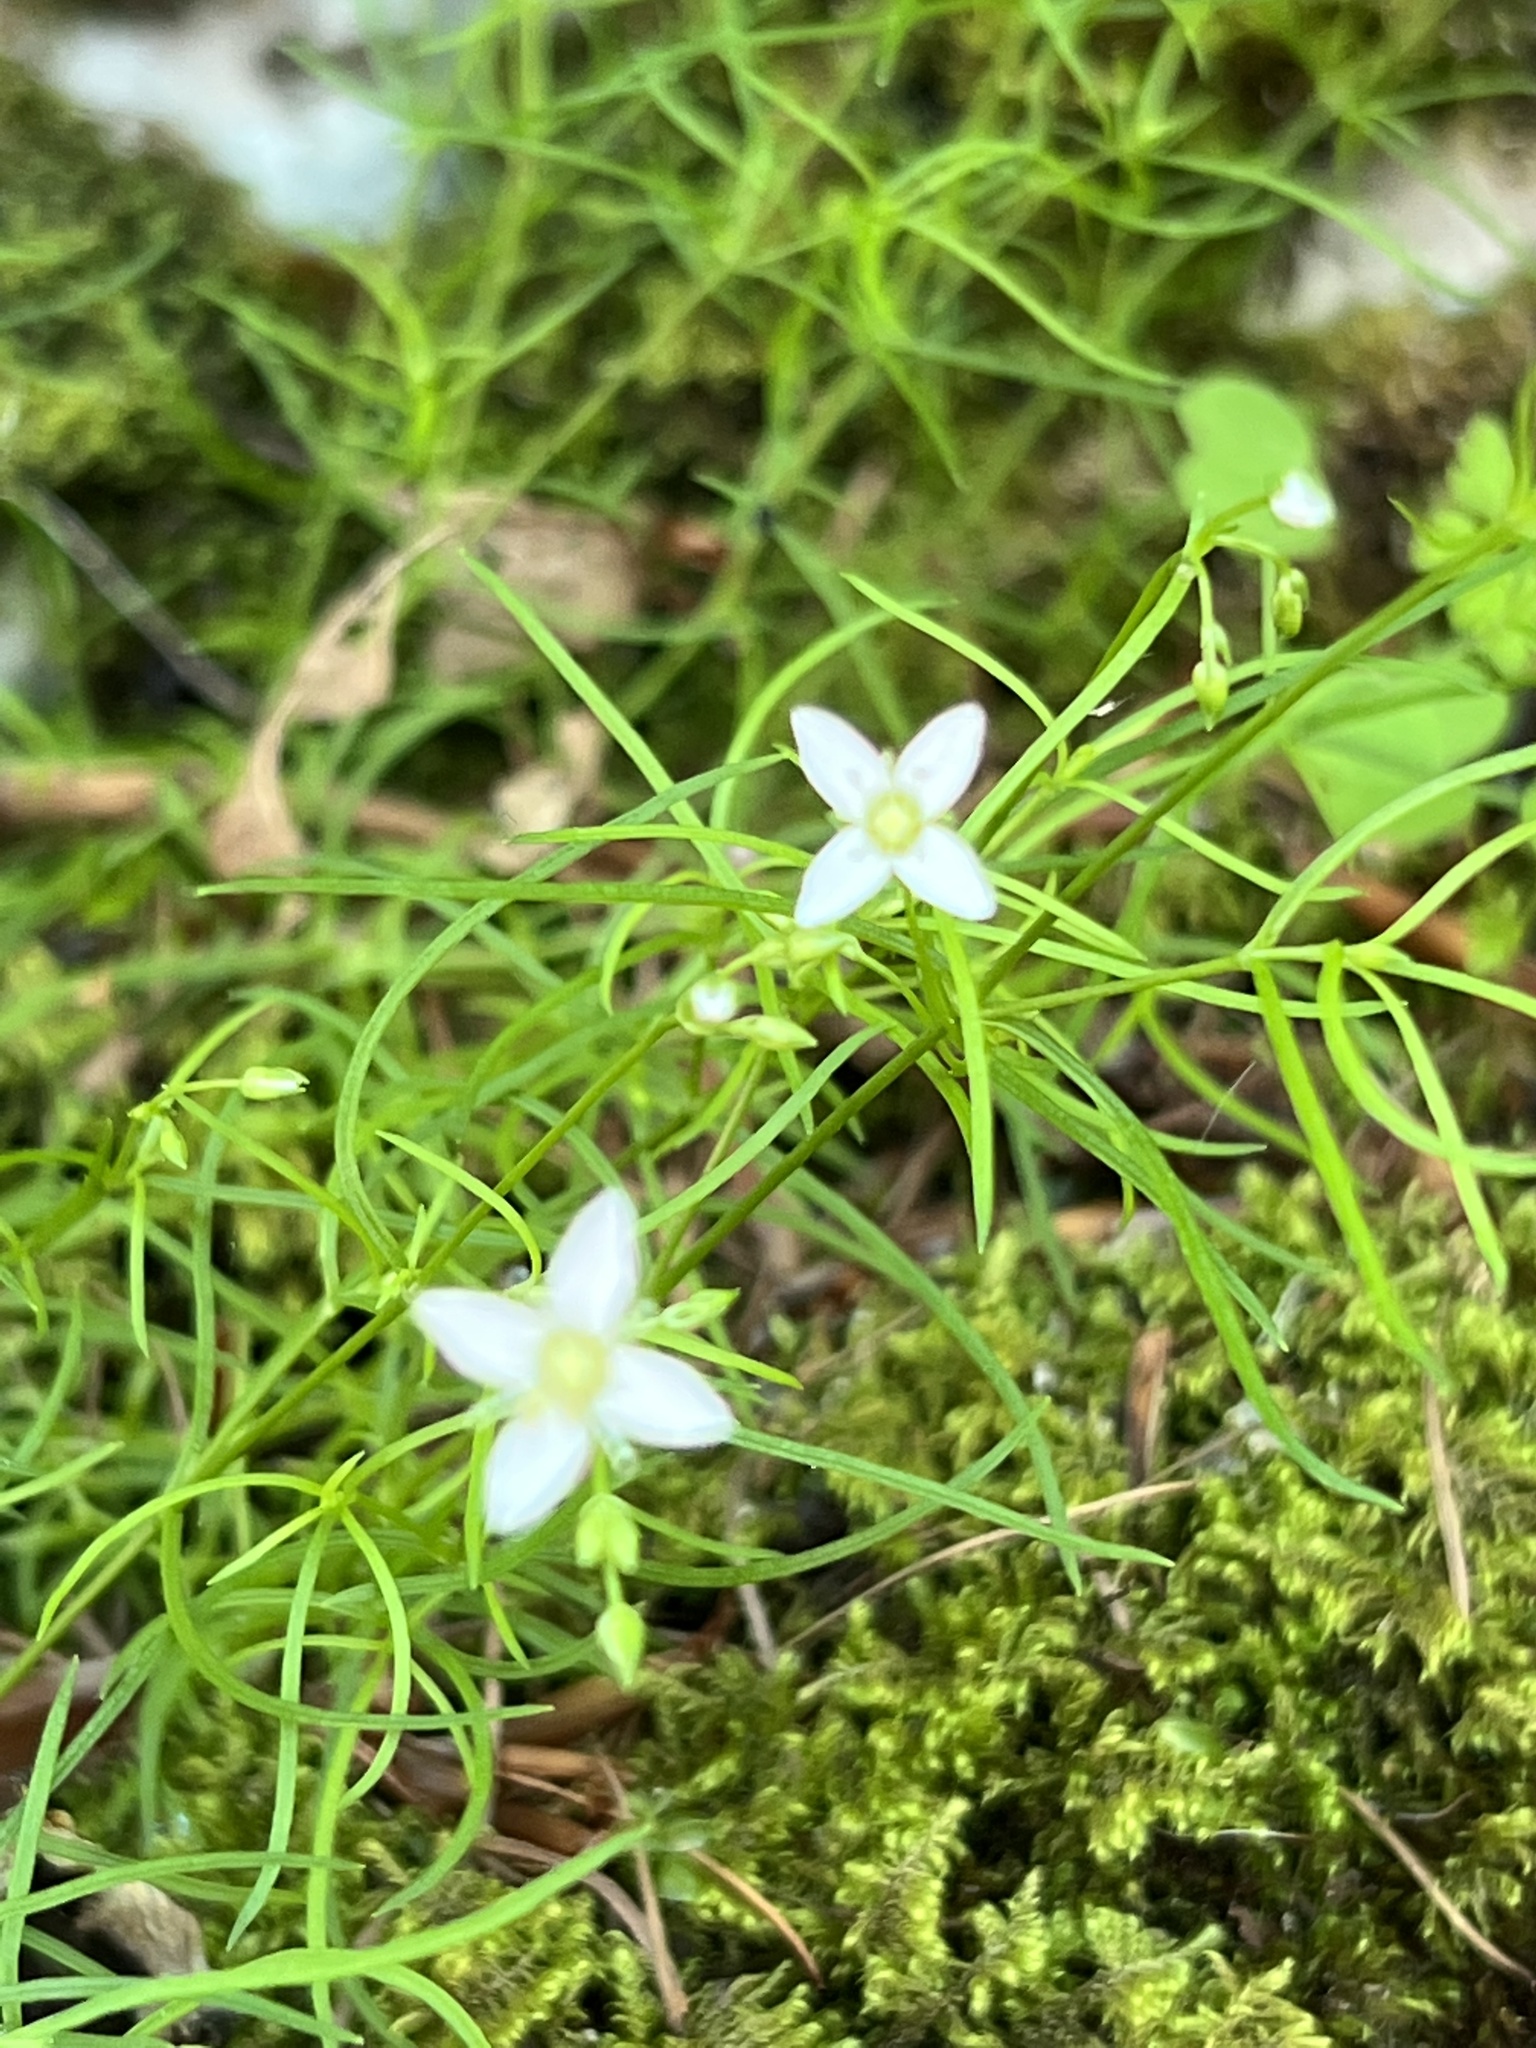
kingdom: Plantae
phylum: Tracheophyta
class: Magnoliopsida
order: Caryophyllales
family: Caryophyllaceae
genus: Moehringia
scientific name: Moehringia muscosa
